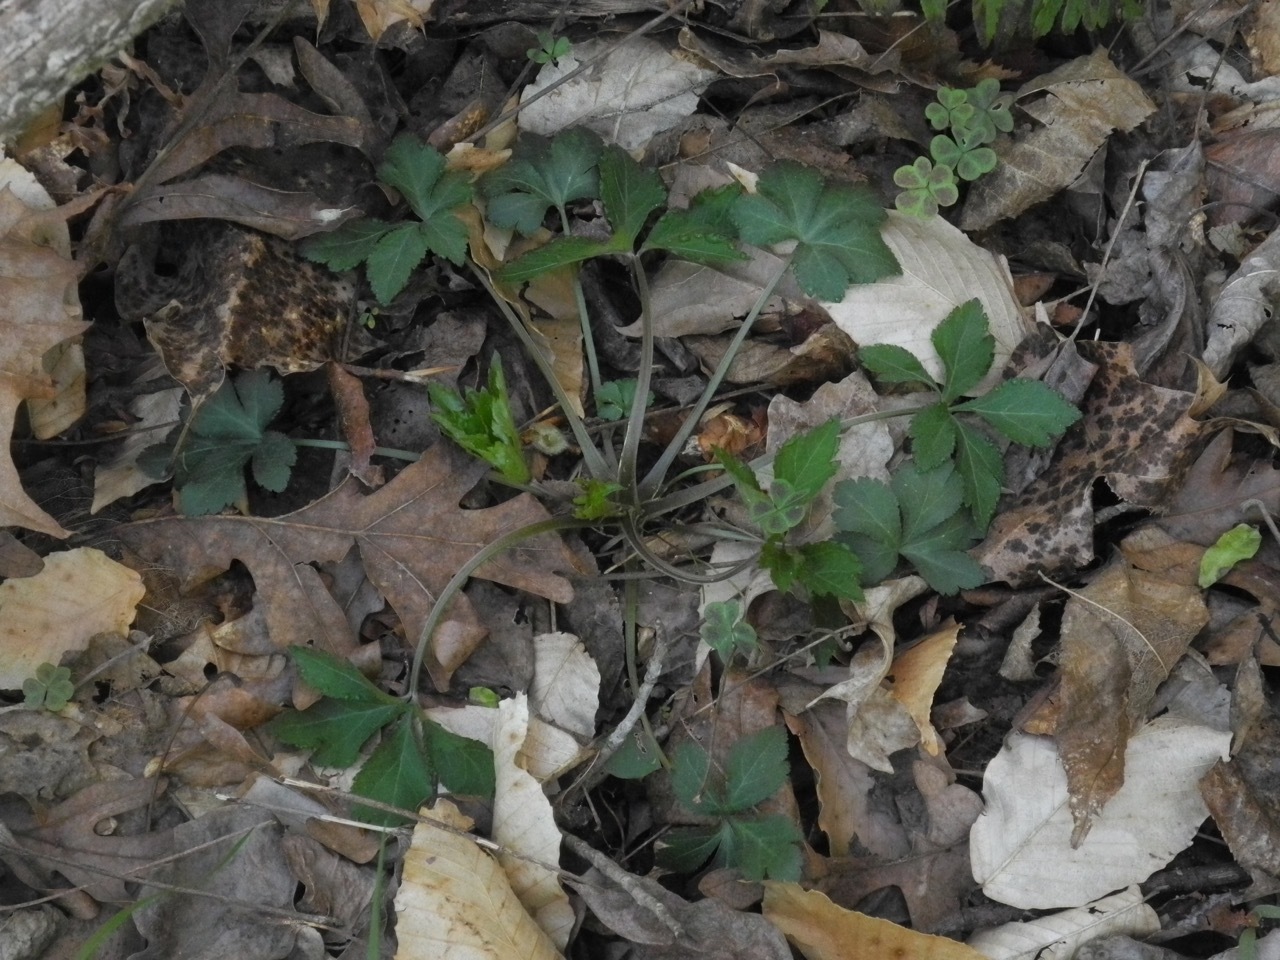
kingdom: Plantae
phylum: Tracheophyta
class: Magnoliopsida
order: Apiales
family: Apiaceae
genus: Sanicula
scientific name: Sanicula canadensis
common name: Canada sanicle
